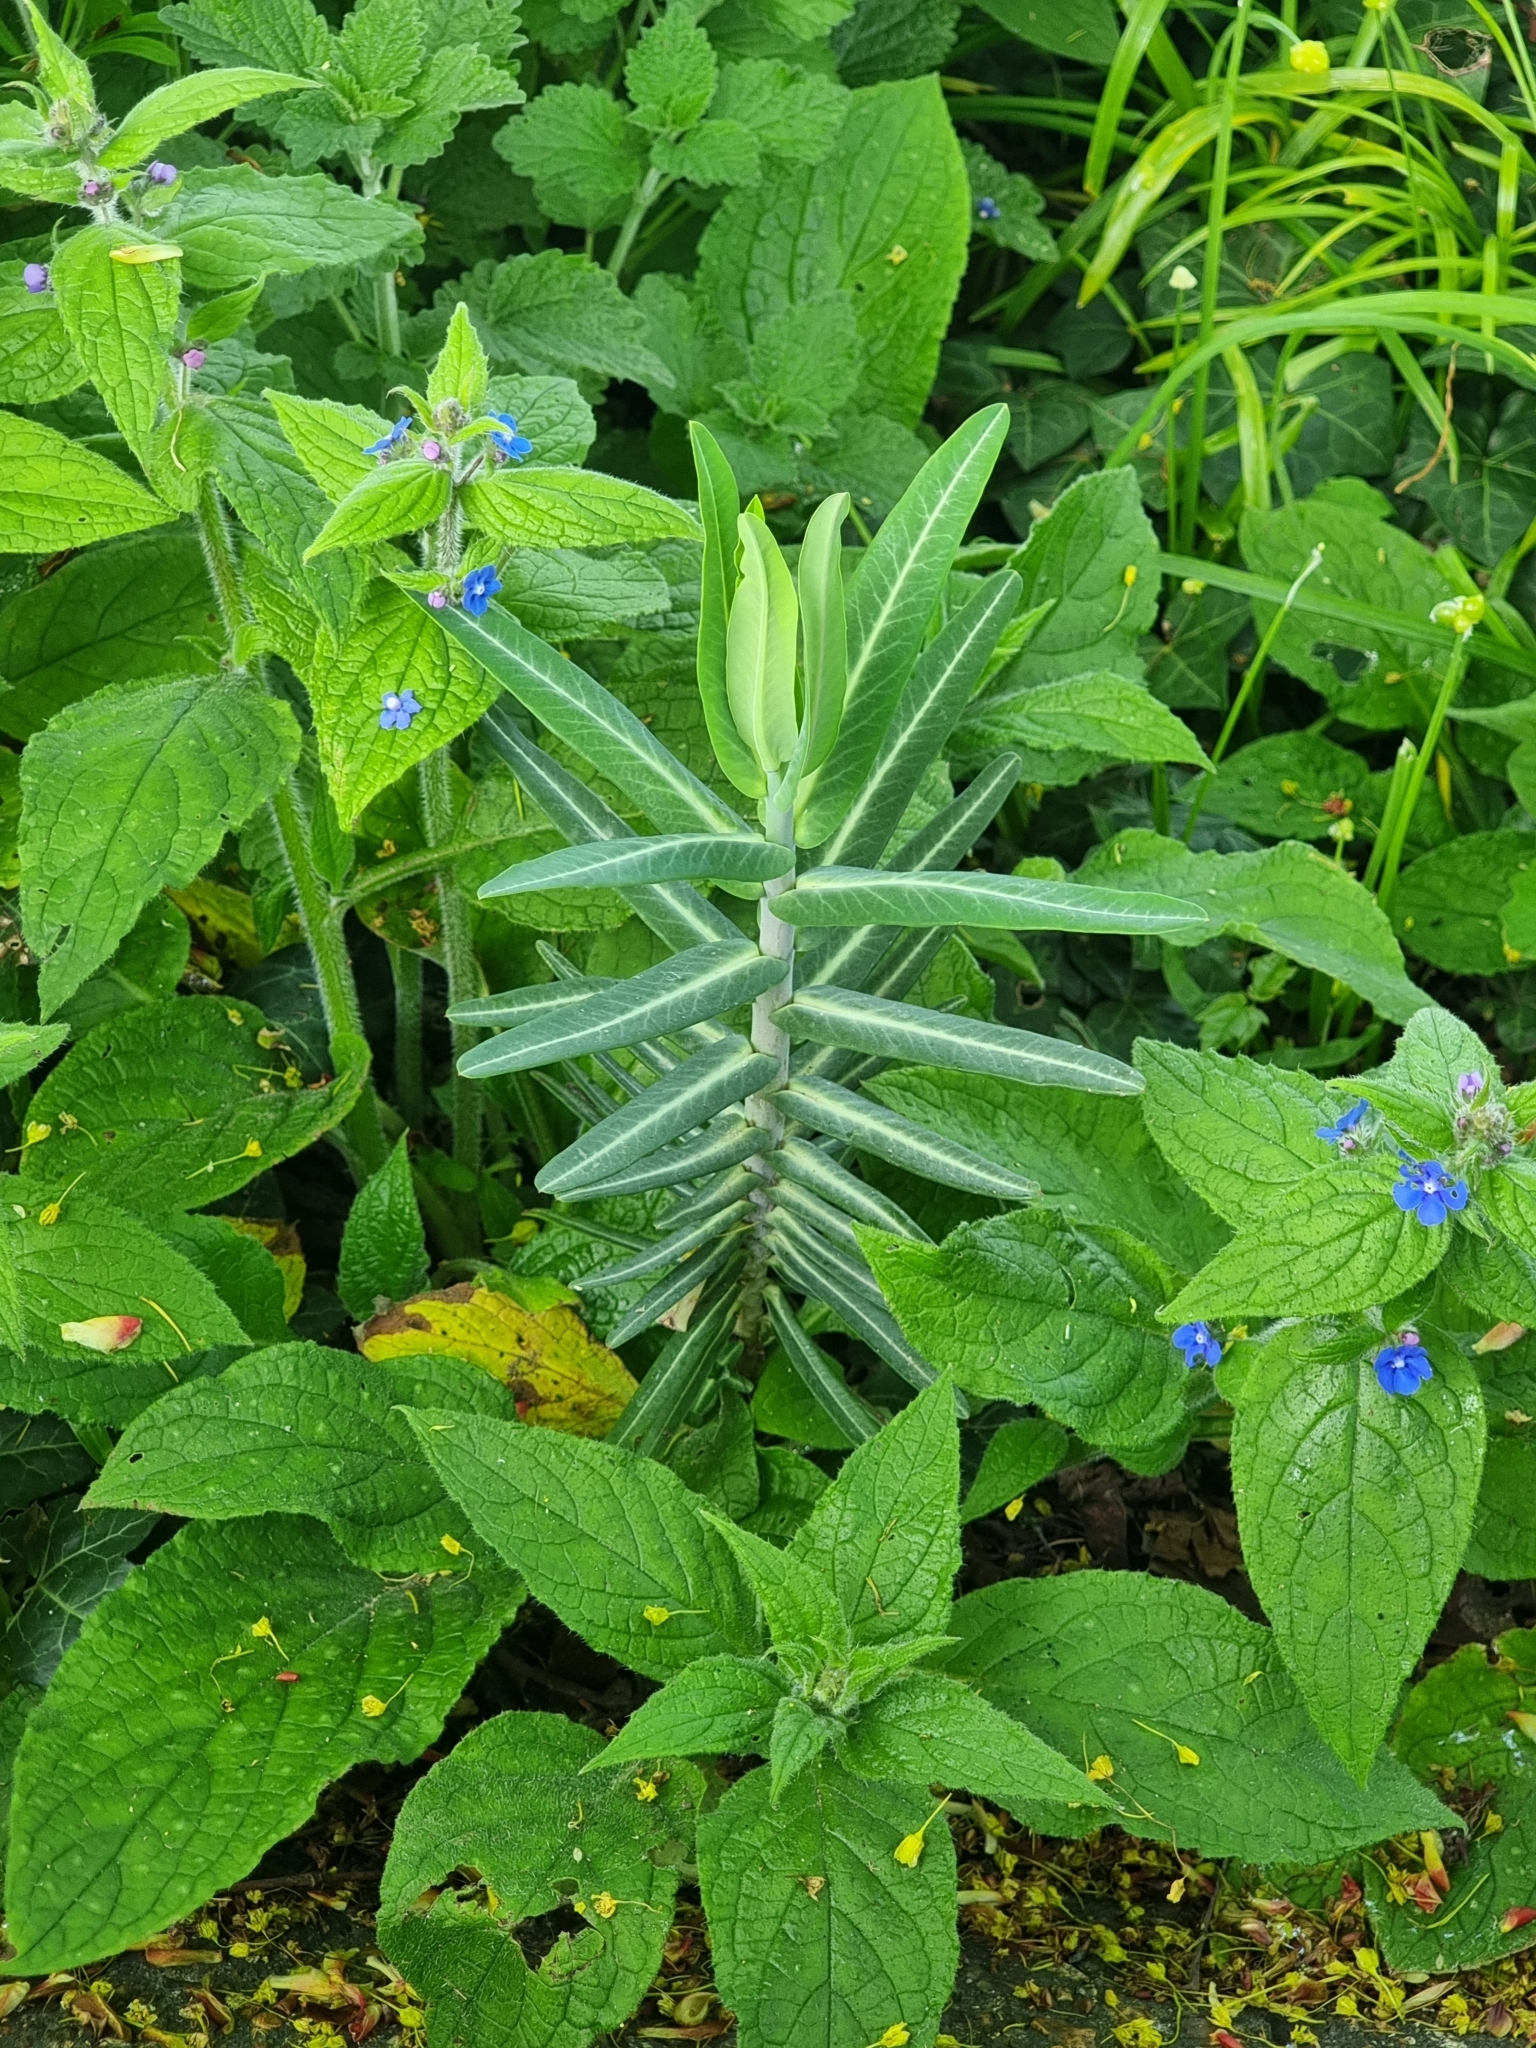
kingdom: Plantae
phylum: Tracheophyta
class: Magnoliopsida
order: Malpighiales
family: Euphorbiaceae
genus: Euphorbia
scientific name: Euphorbia lathyris
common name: Caper spurge
